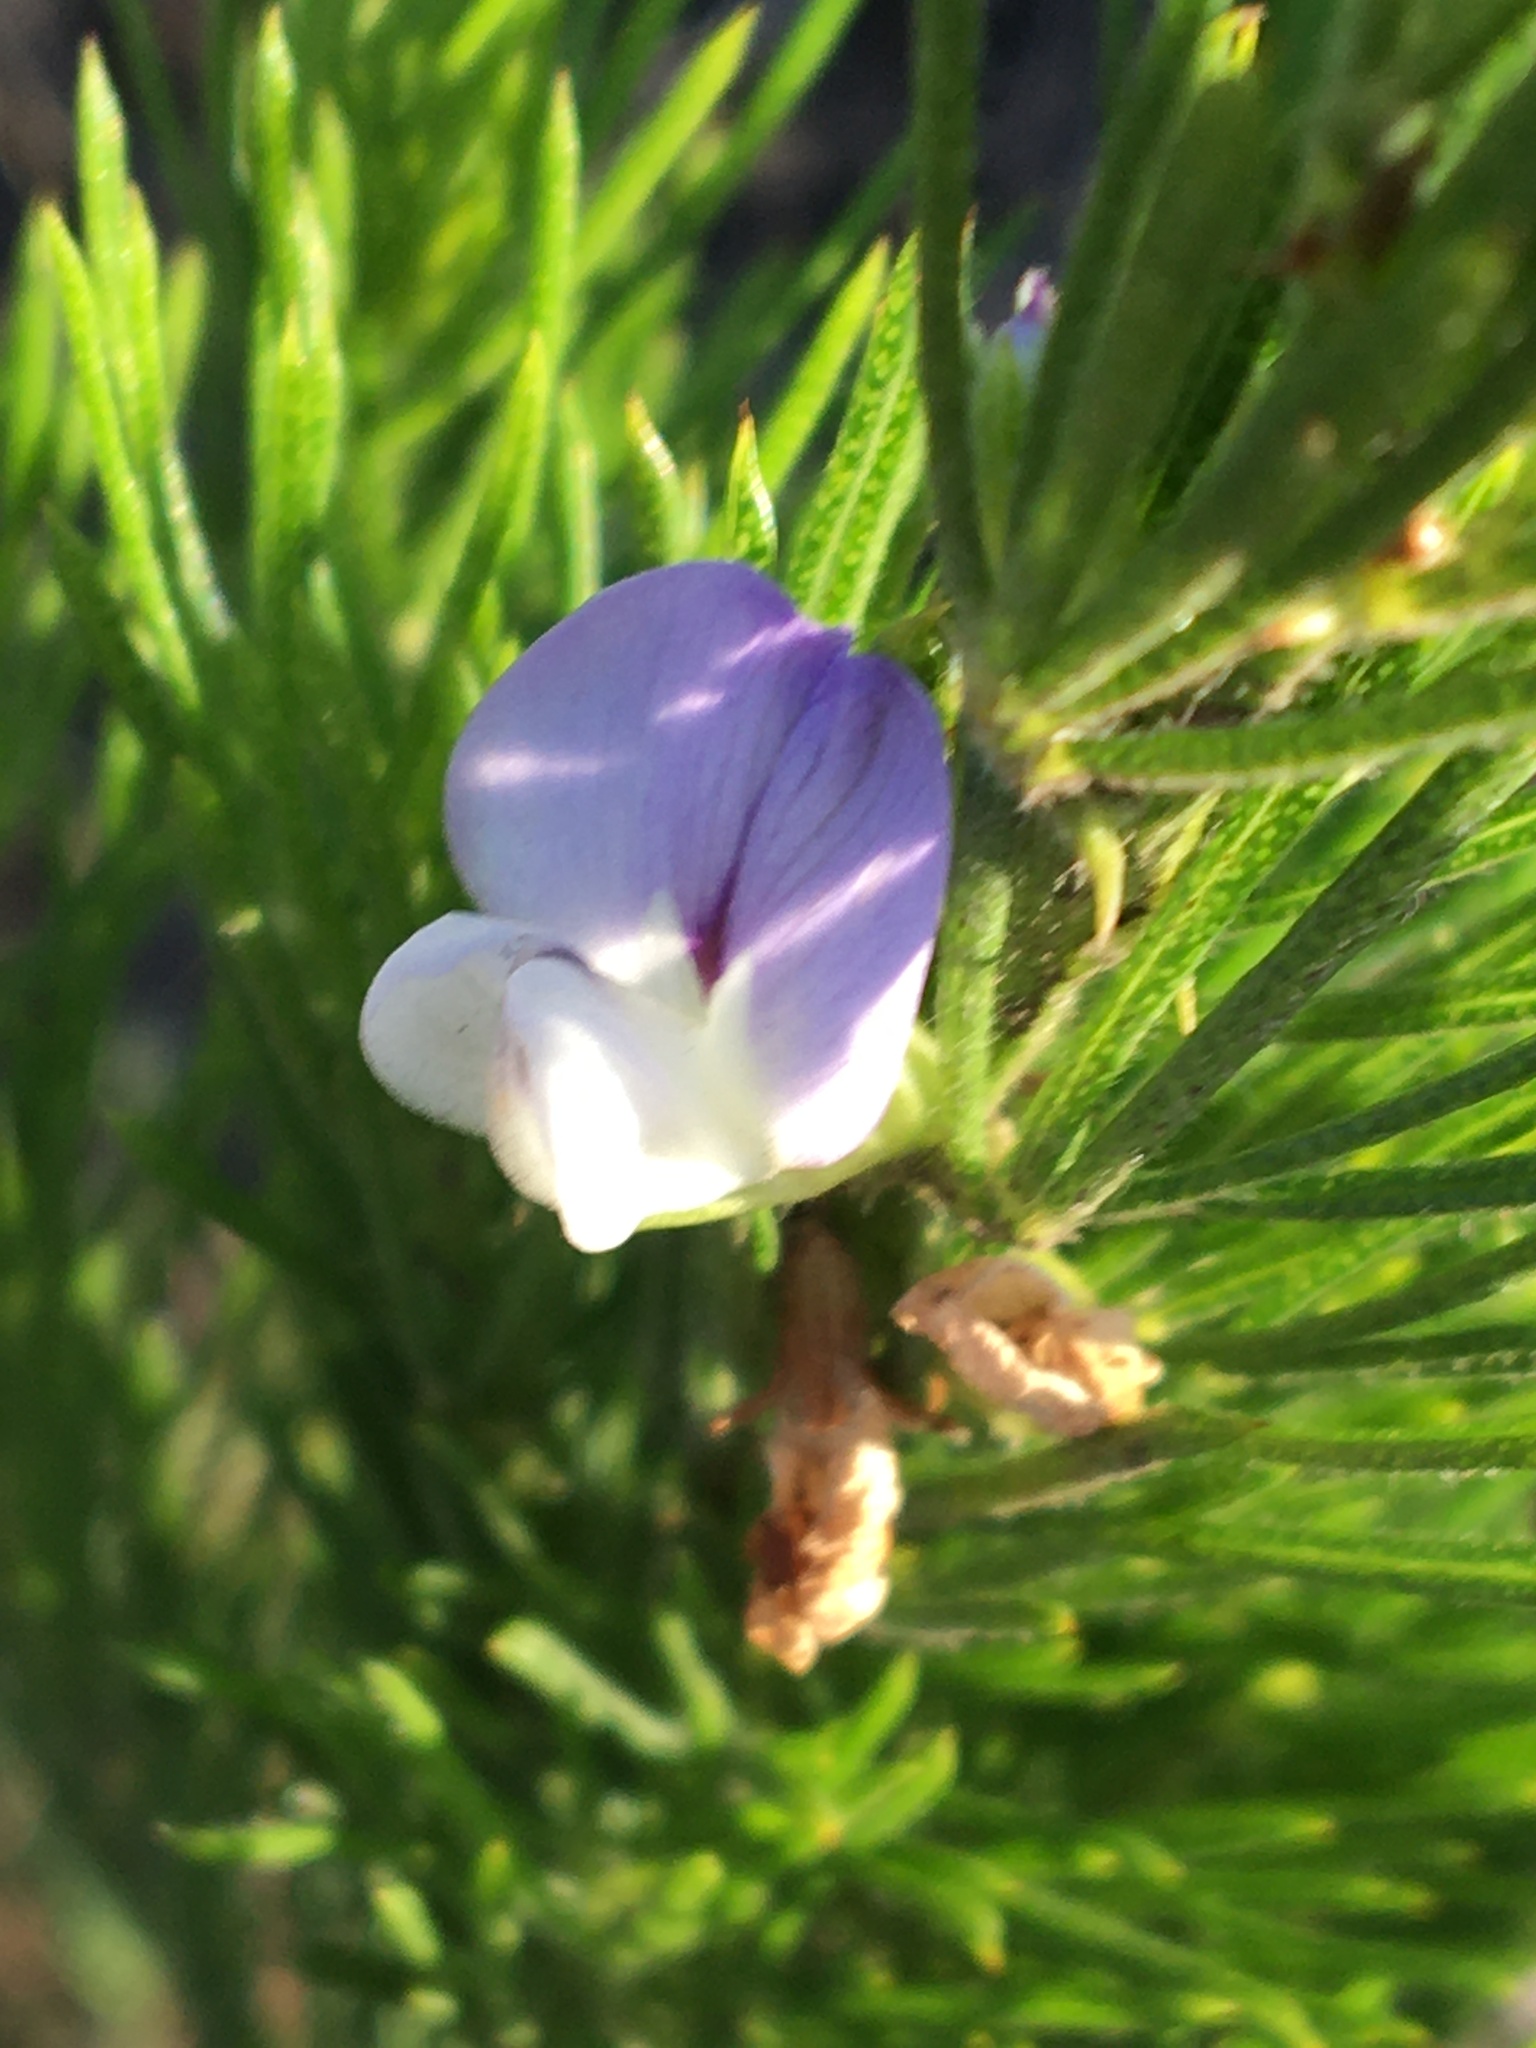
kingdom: Plantae
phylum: Tracheophyta
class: Magnoliopsida
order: Fabales
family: Fabaceae
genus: Psoralea
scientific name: Psoralea pinnata
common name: African scurfpea
